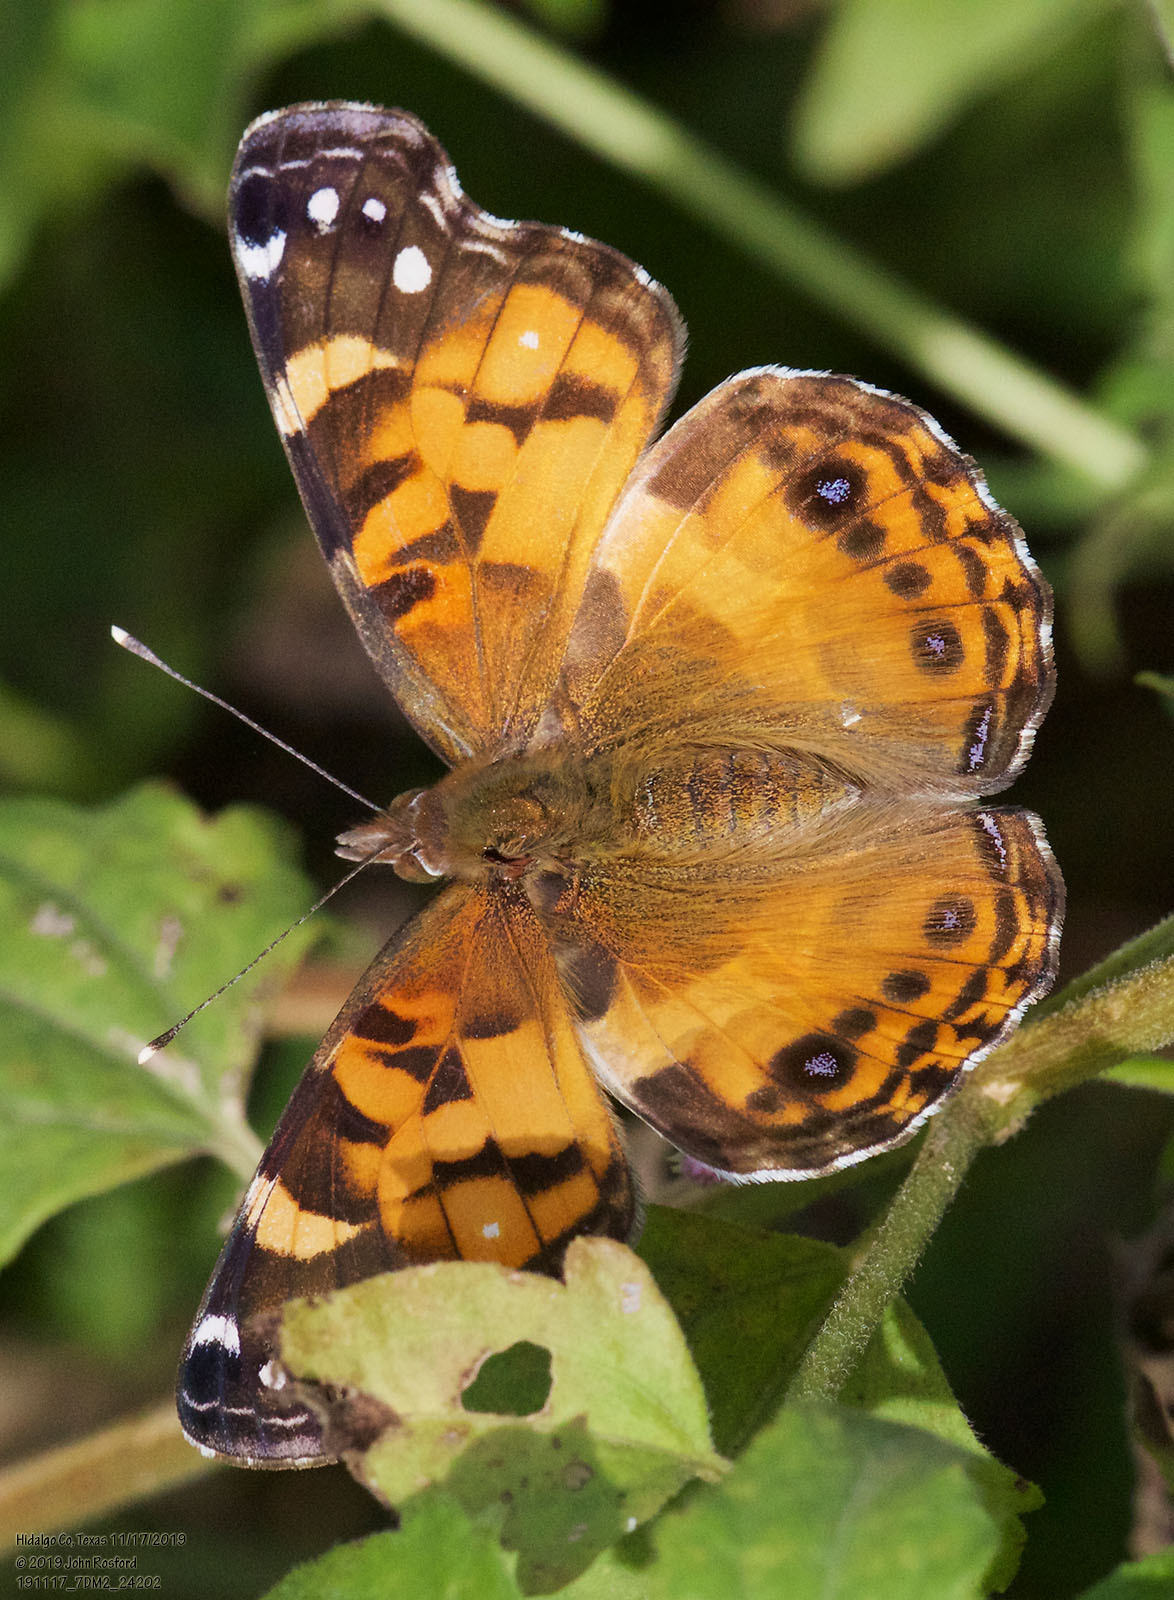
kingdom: Animalia
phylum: Arthropoda
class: Insecta
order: Lepidoptera
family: Nymphalidae
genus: Vanessa
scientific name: Vanessa virginiensis
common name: American lady
